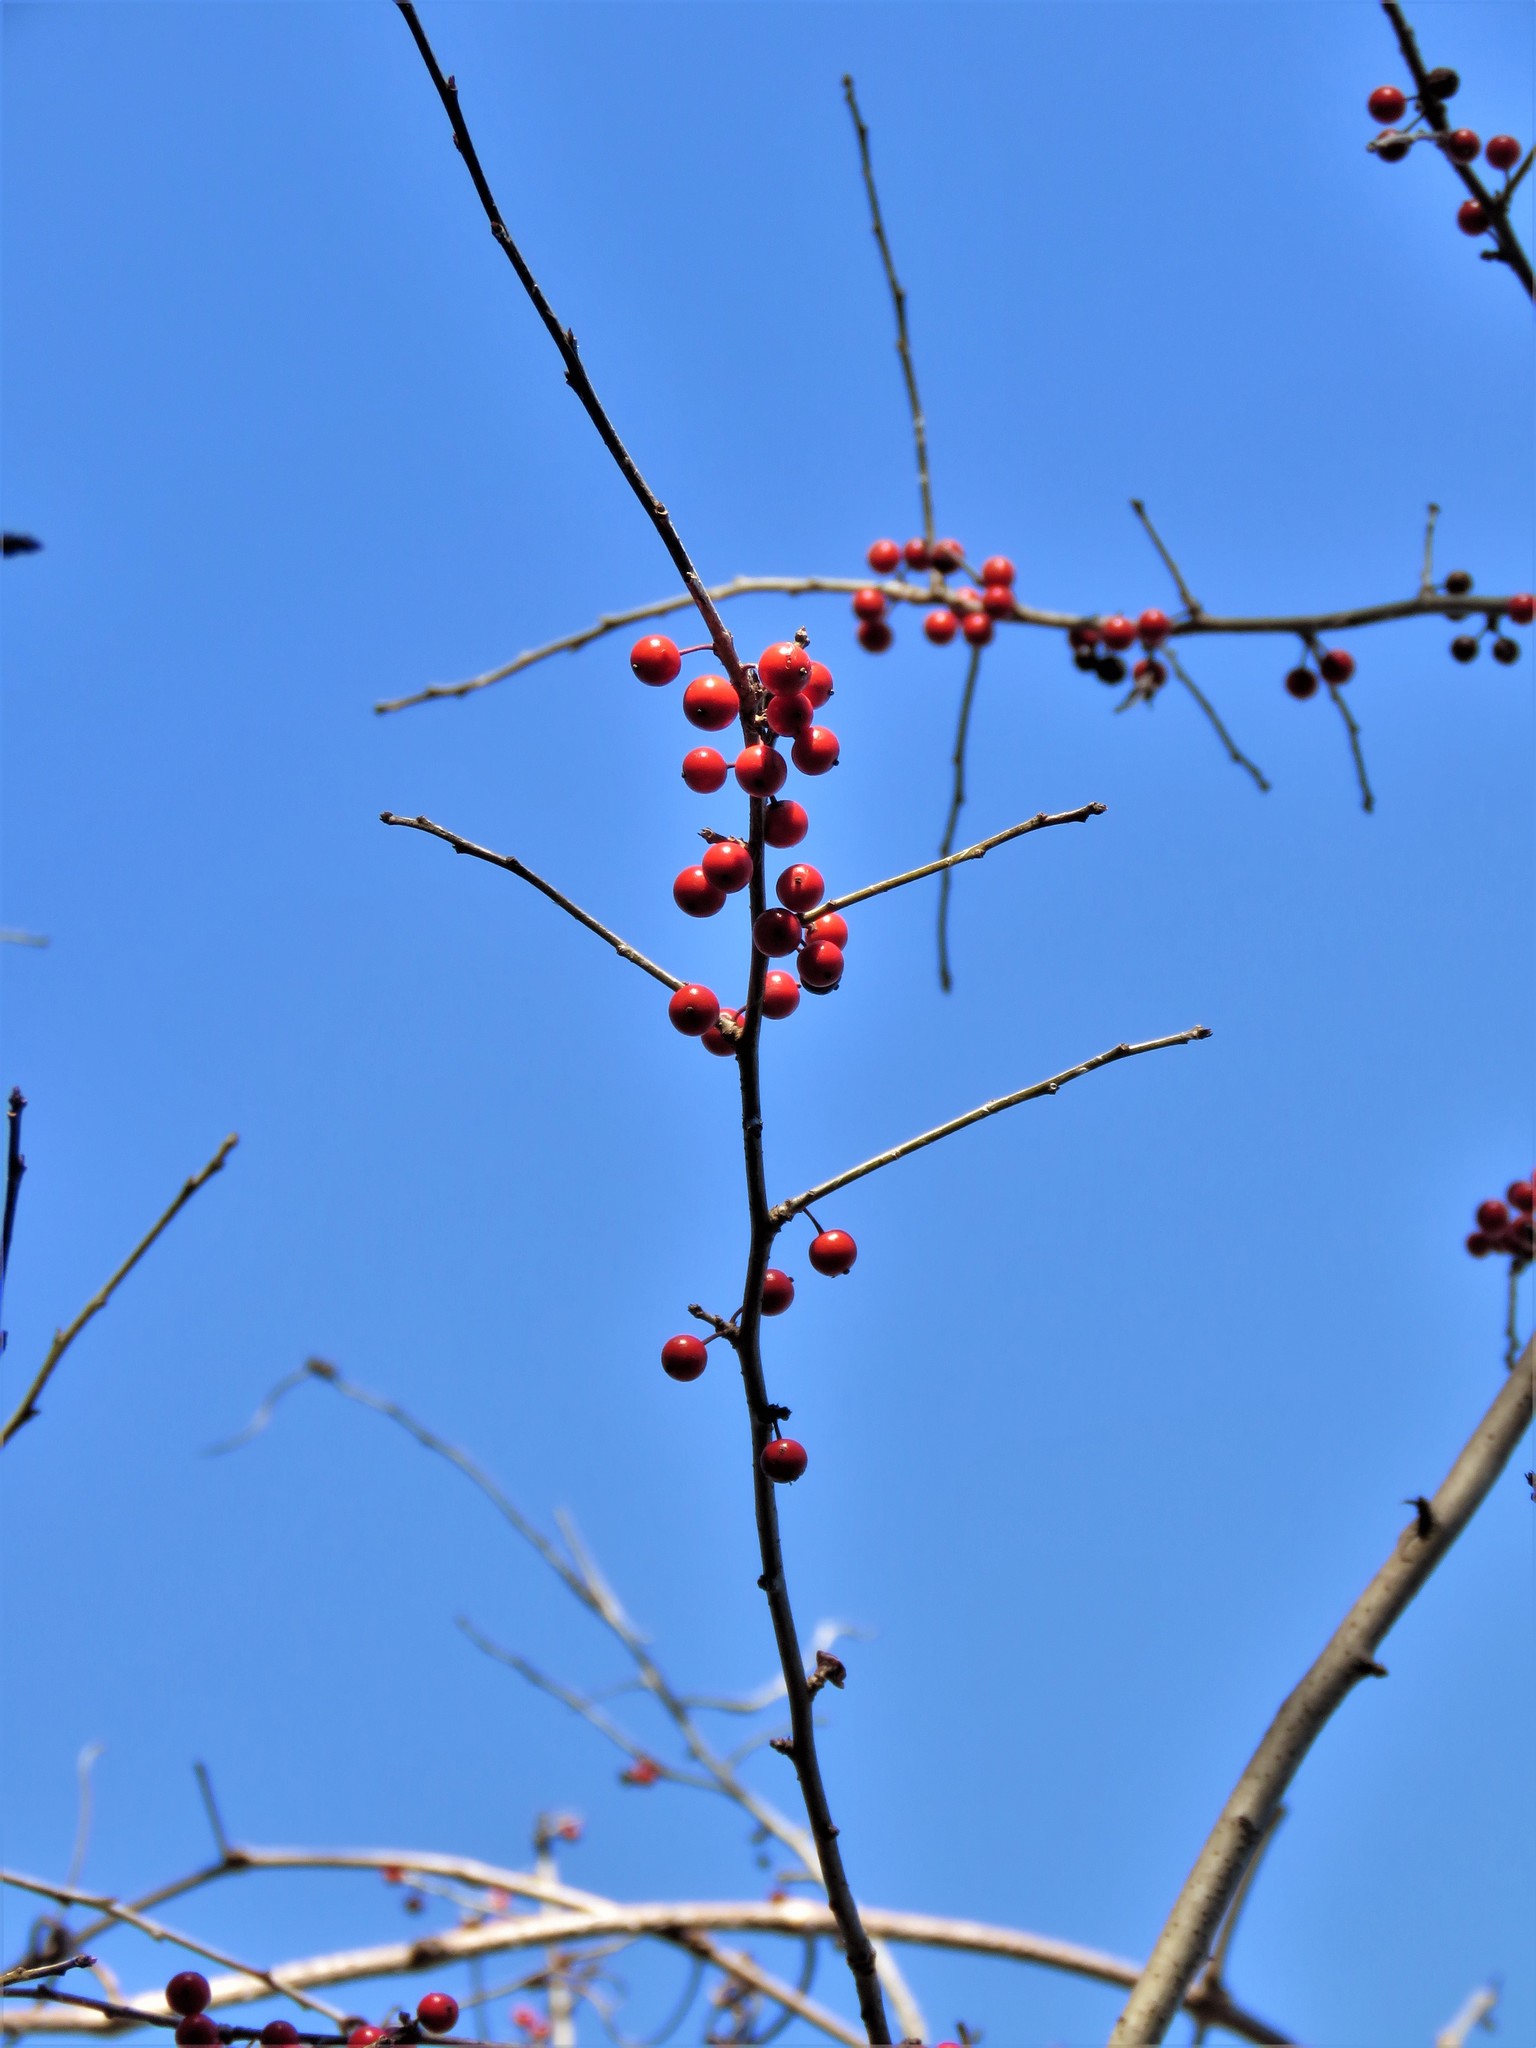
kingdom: Plantae
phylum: Tracheophyta
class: Magnoliopsida
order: Aquifoliales
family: Aquifoliaceae
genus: Ilex
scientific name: Ilex decidua
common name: Possum-haw
